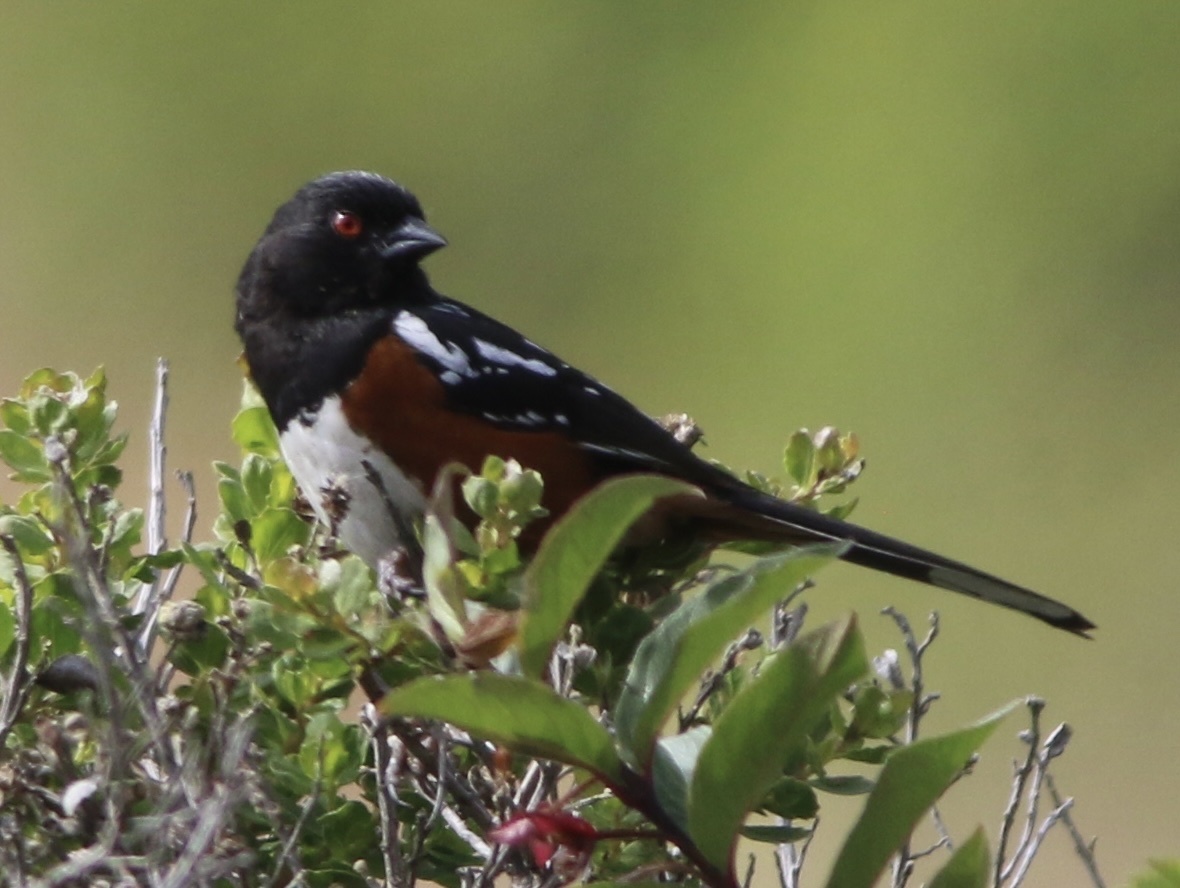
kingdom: Animalia
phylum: Chordata
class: Aves
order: Passeriformes
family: Passerellidae
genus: Pipilo
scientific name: Pipilo maculatus
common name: Spotted towhee
